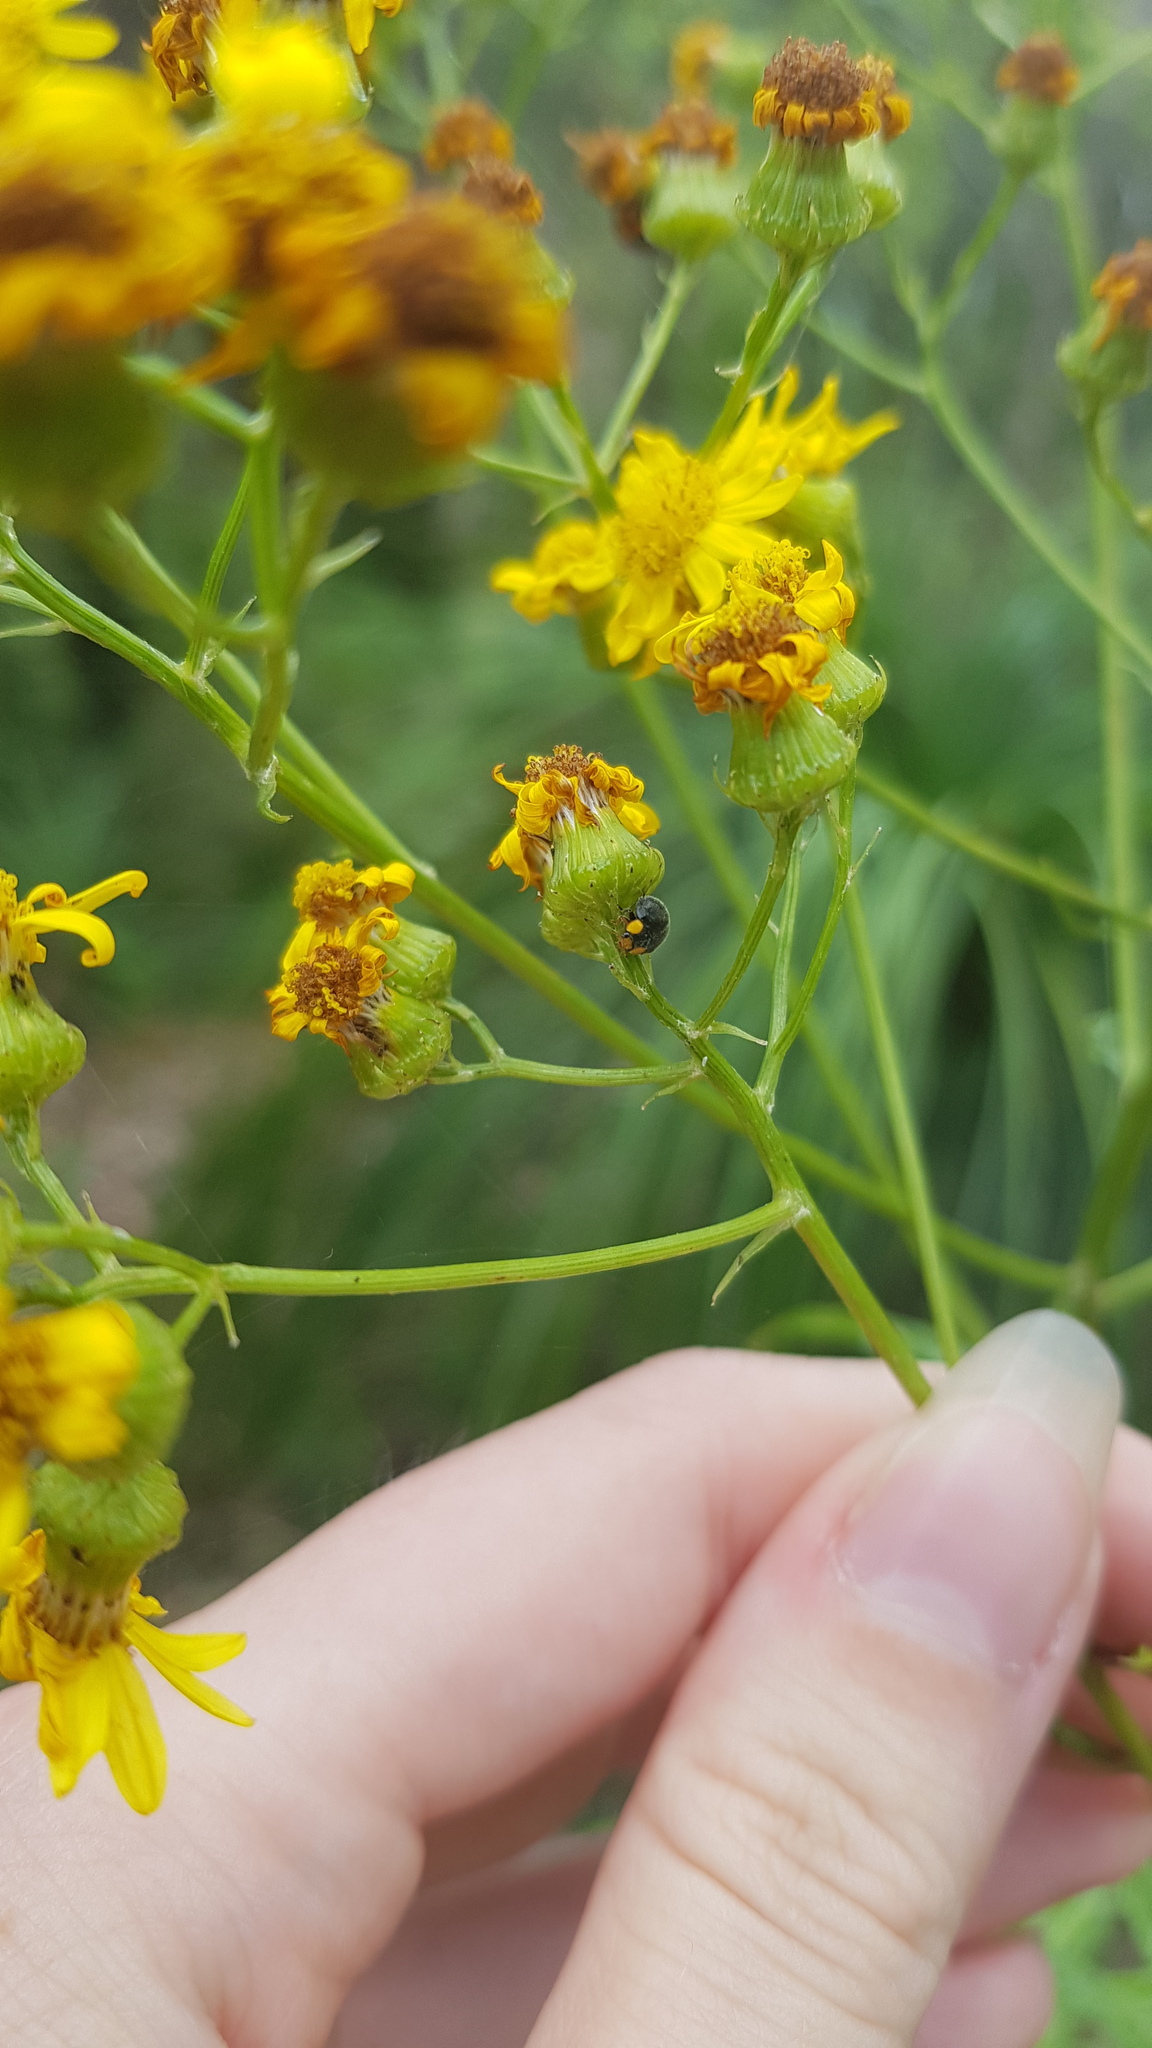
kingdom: Animalia
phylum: Arthropoda
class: Insecta
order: Coleoptera
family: Coccinellidae
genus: Scymnodes
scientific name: Scymnodes lividigaster
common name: Yellowshouldered lady beetle
